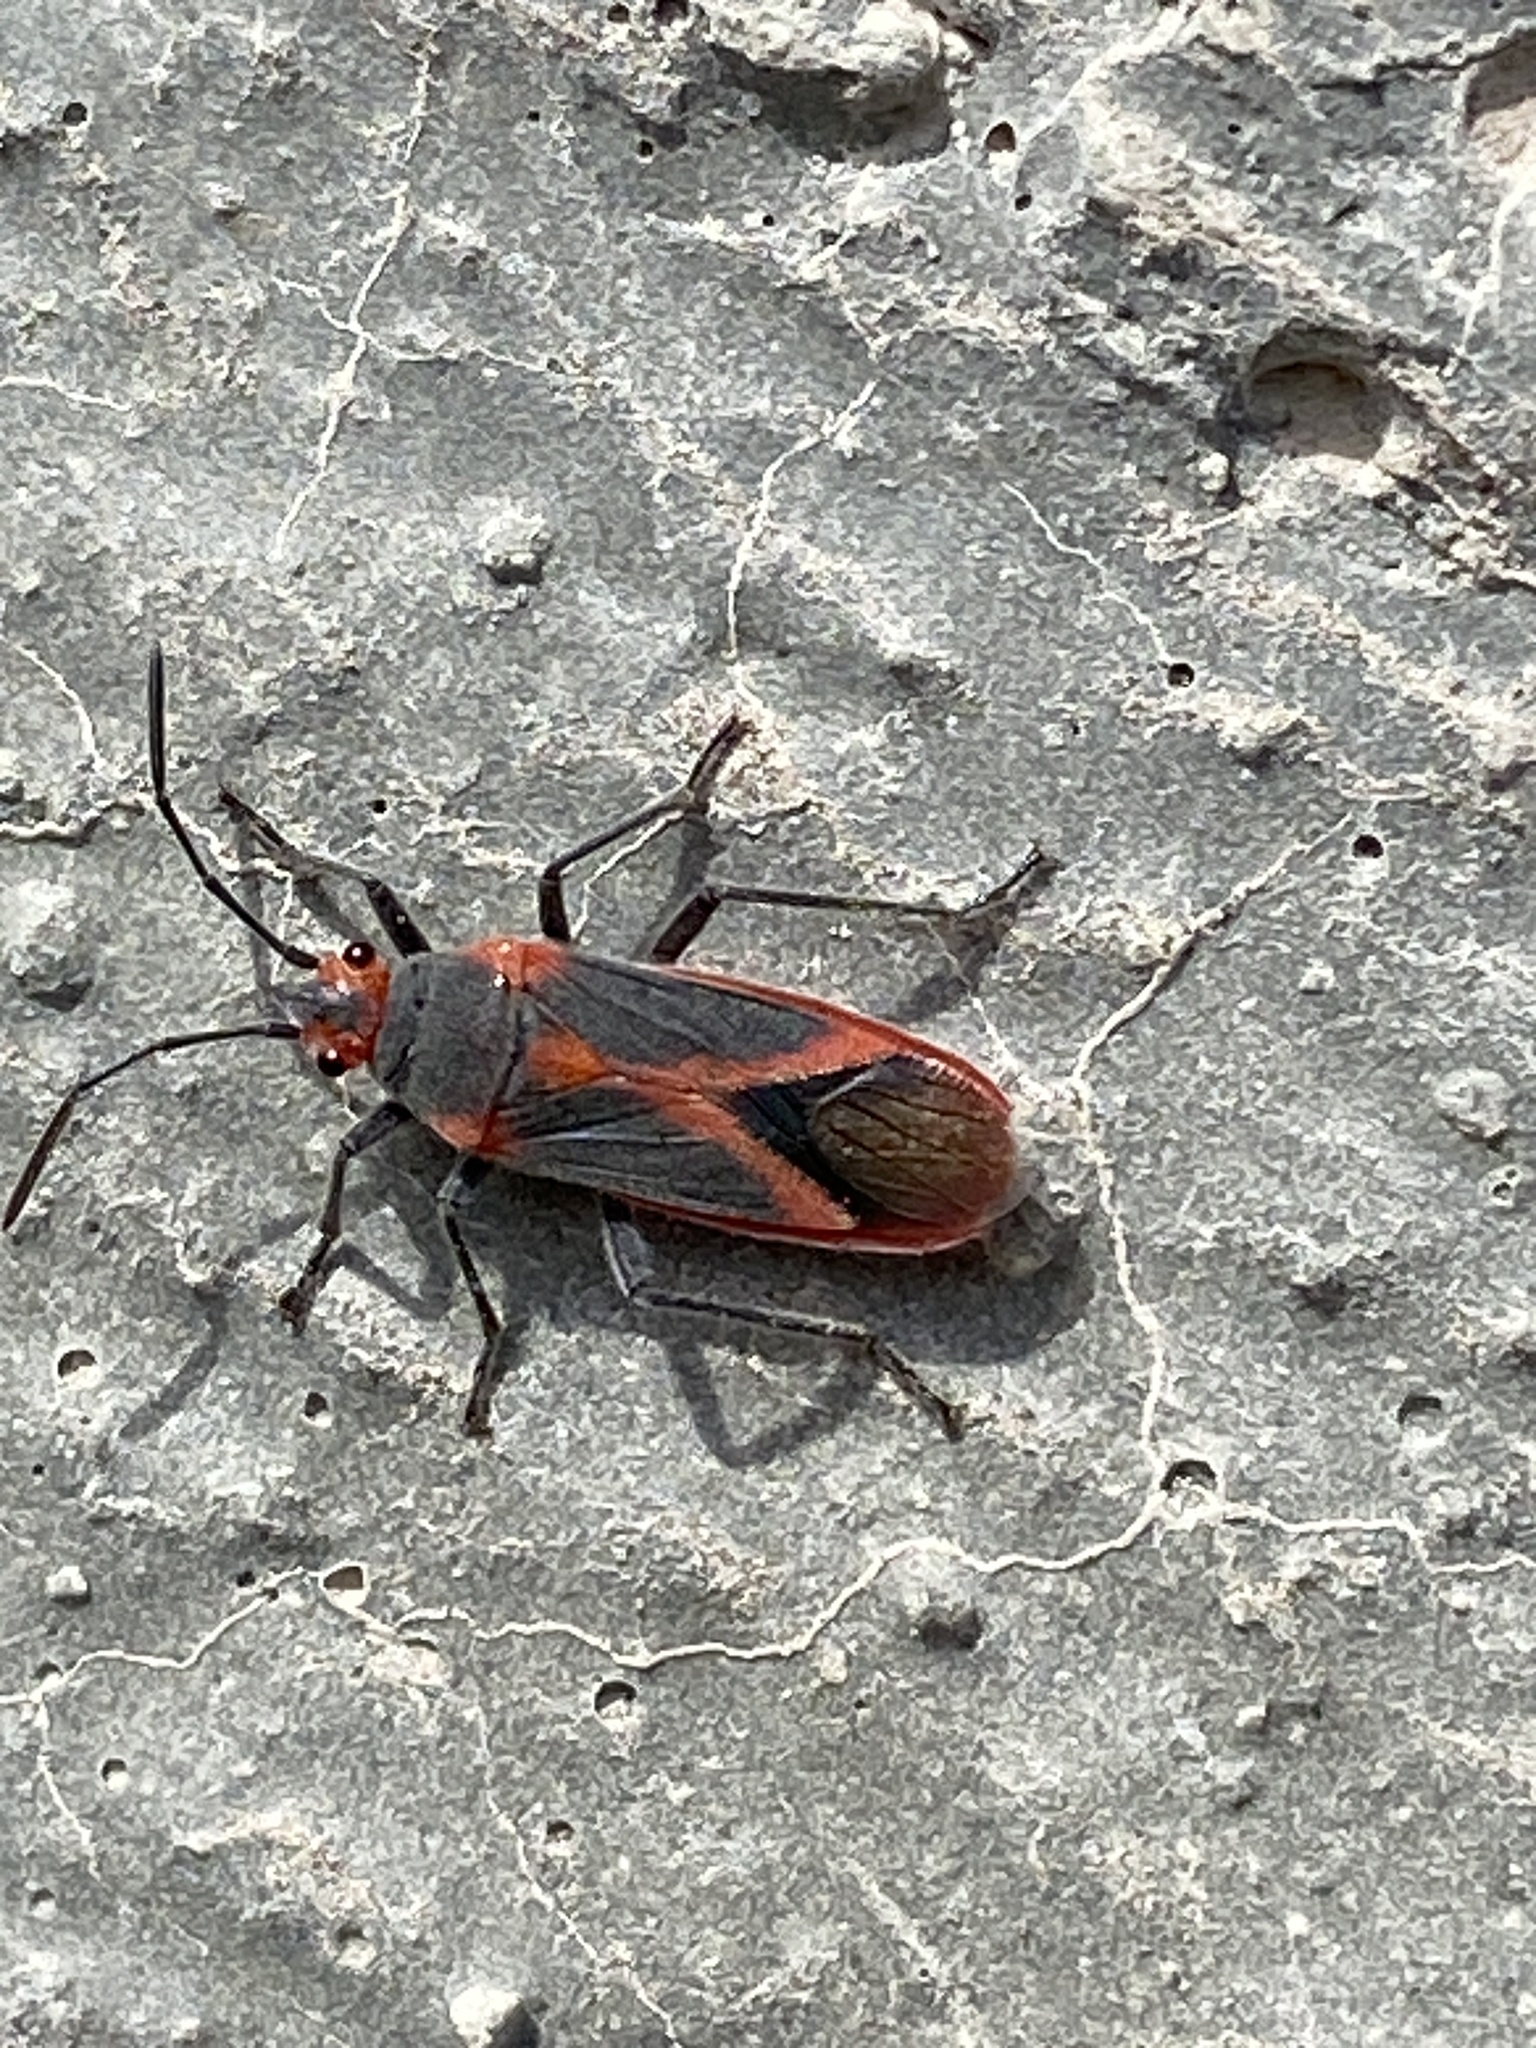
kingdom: Animalia
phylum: Arthropoda
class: Insecta
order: Hemiptera
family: Lygaeidae
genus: Caenocoris
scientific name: Caenocoris nerii
